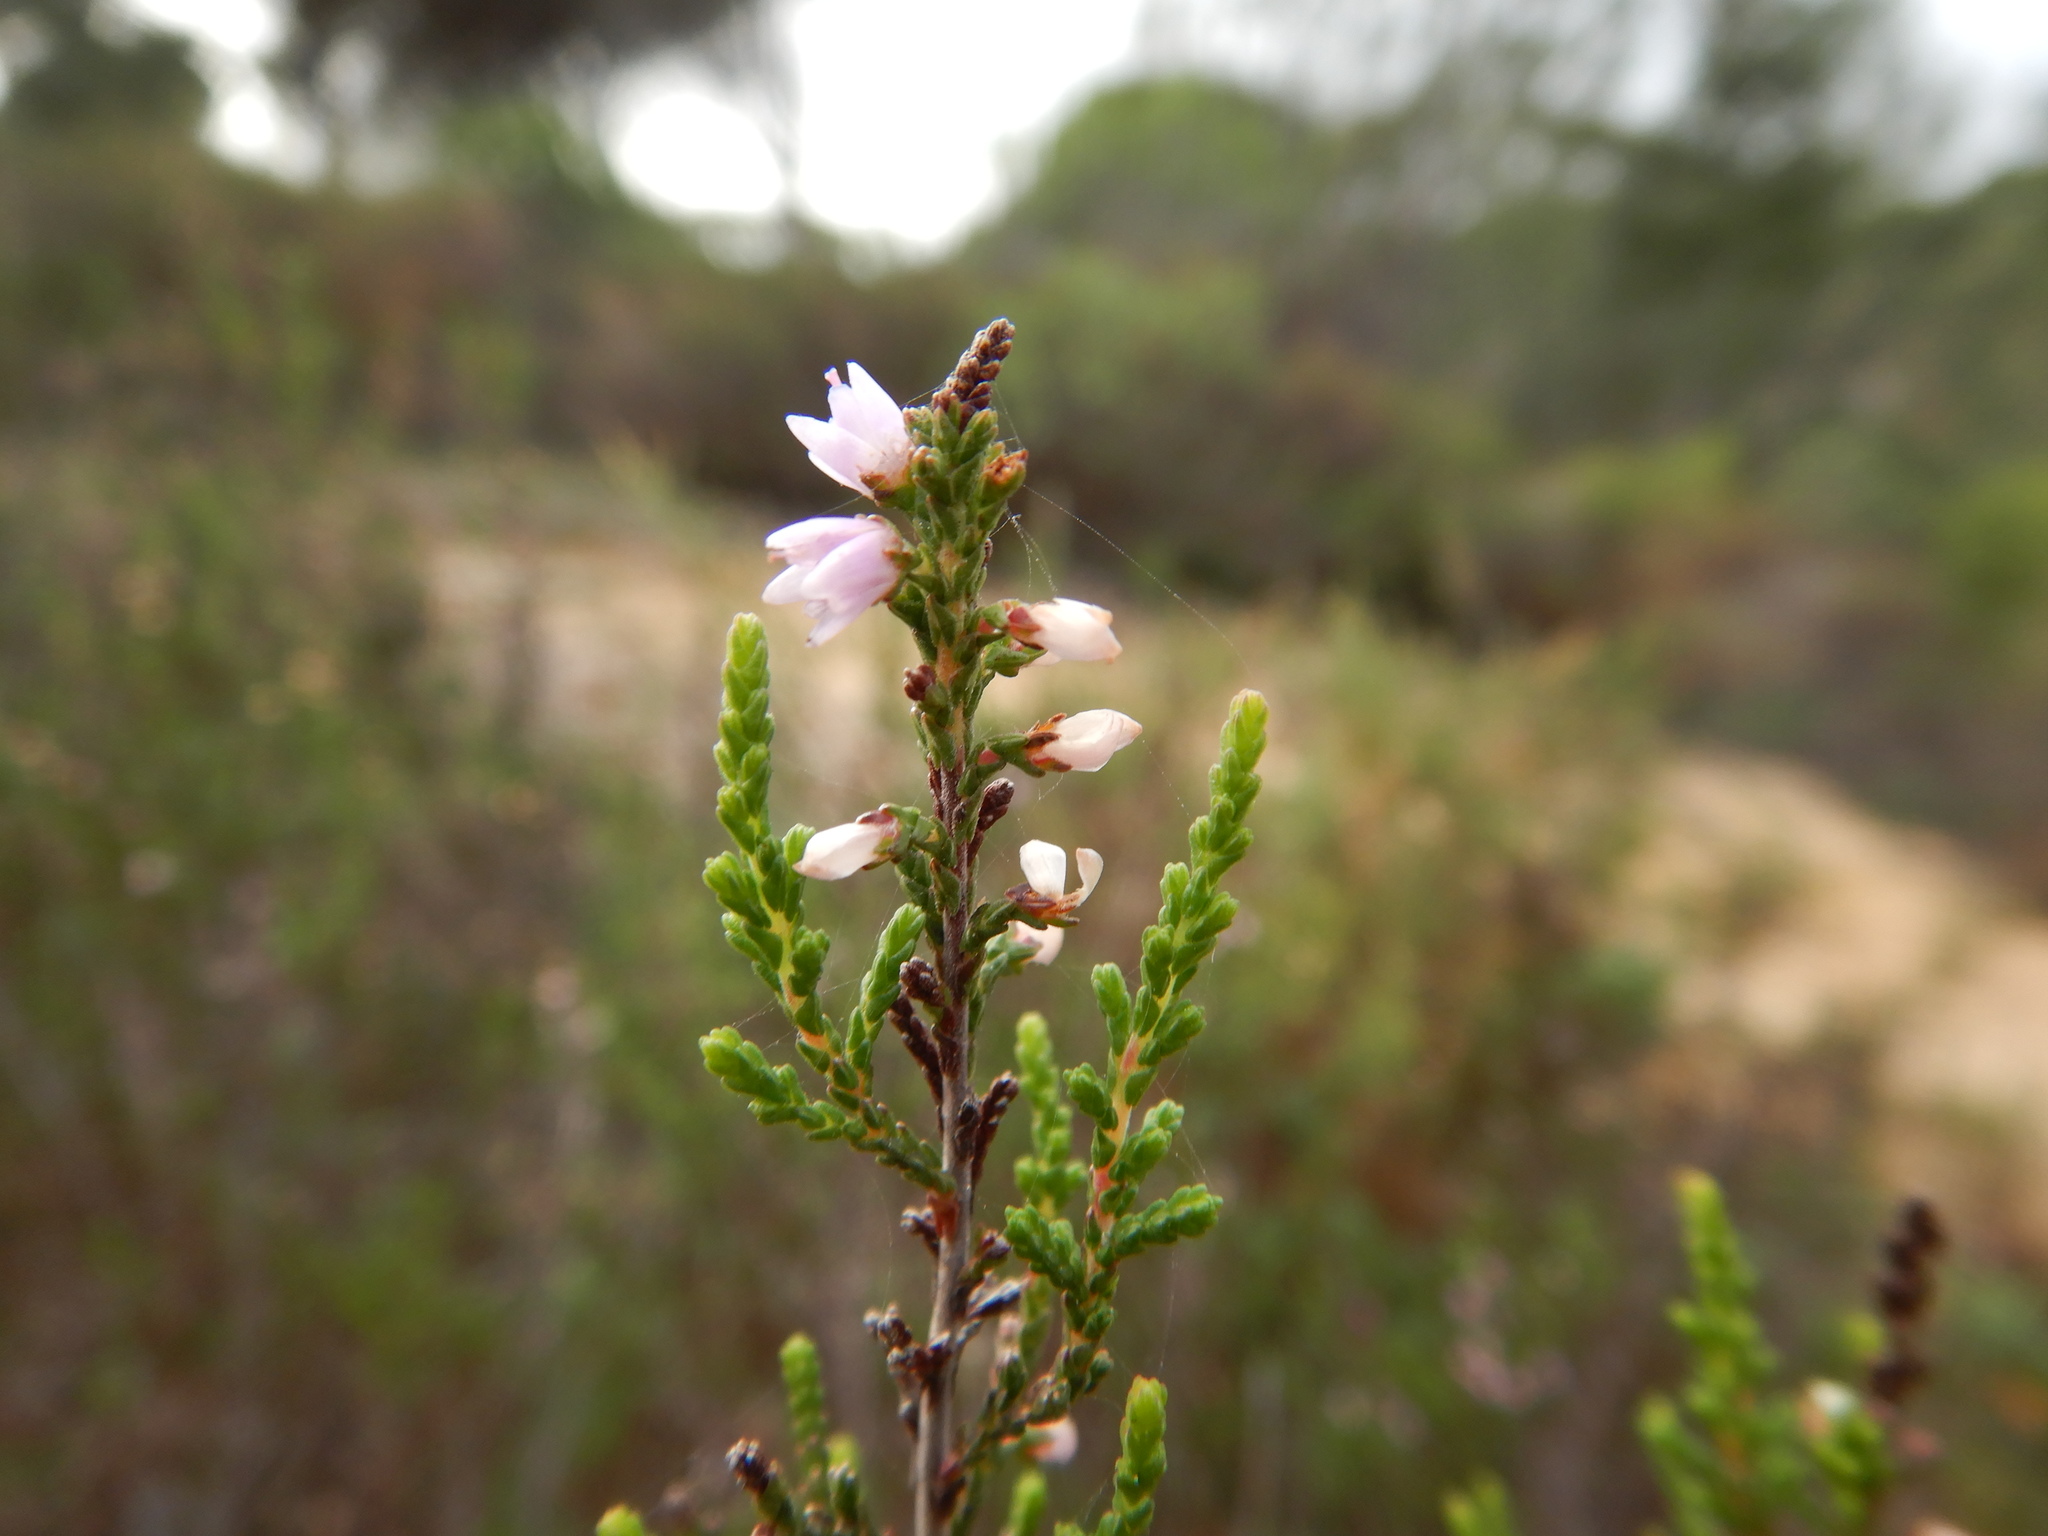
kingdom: Plantae
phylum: Tracheophyta
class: Magnoliopsida
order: Ericales
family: Ericaceae
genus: Calluna
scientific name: Calluna vulgaris
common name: Heather
